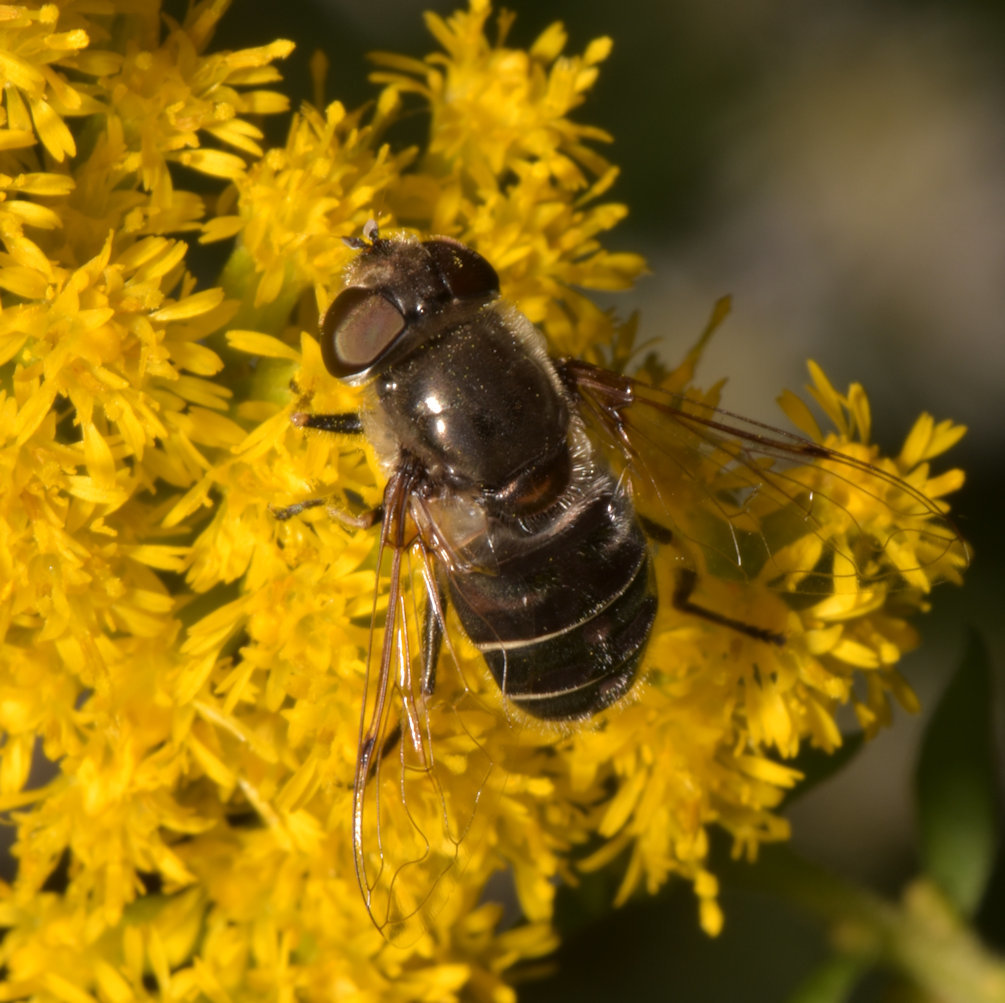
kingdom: Animalia
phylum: Arthropoda
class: Insecta
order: Diptera
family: Syrphidae
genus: Eristalis
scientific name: Eristalis dimidiata
